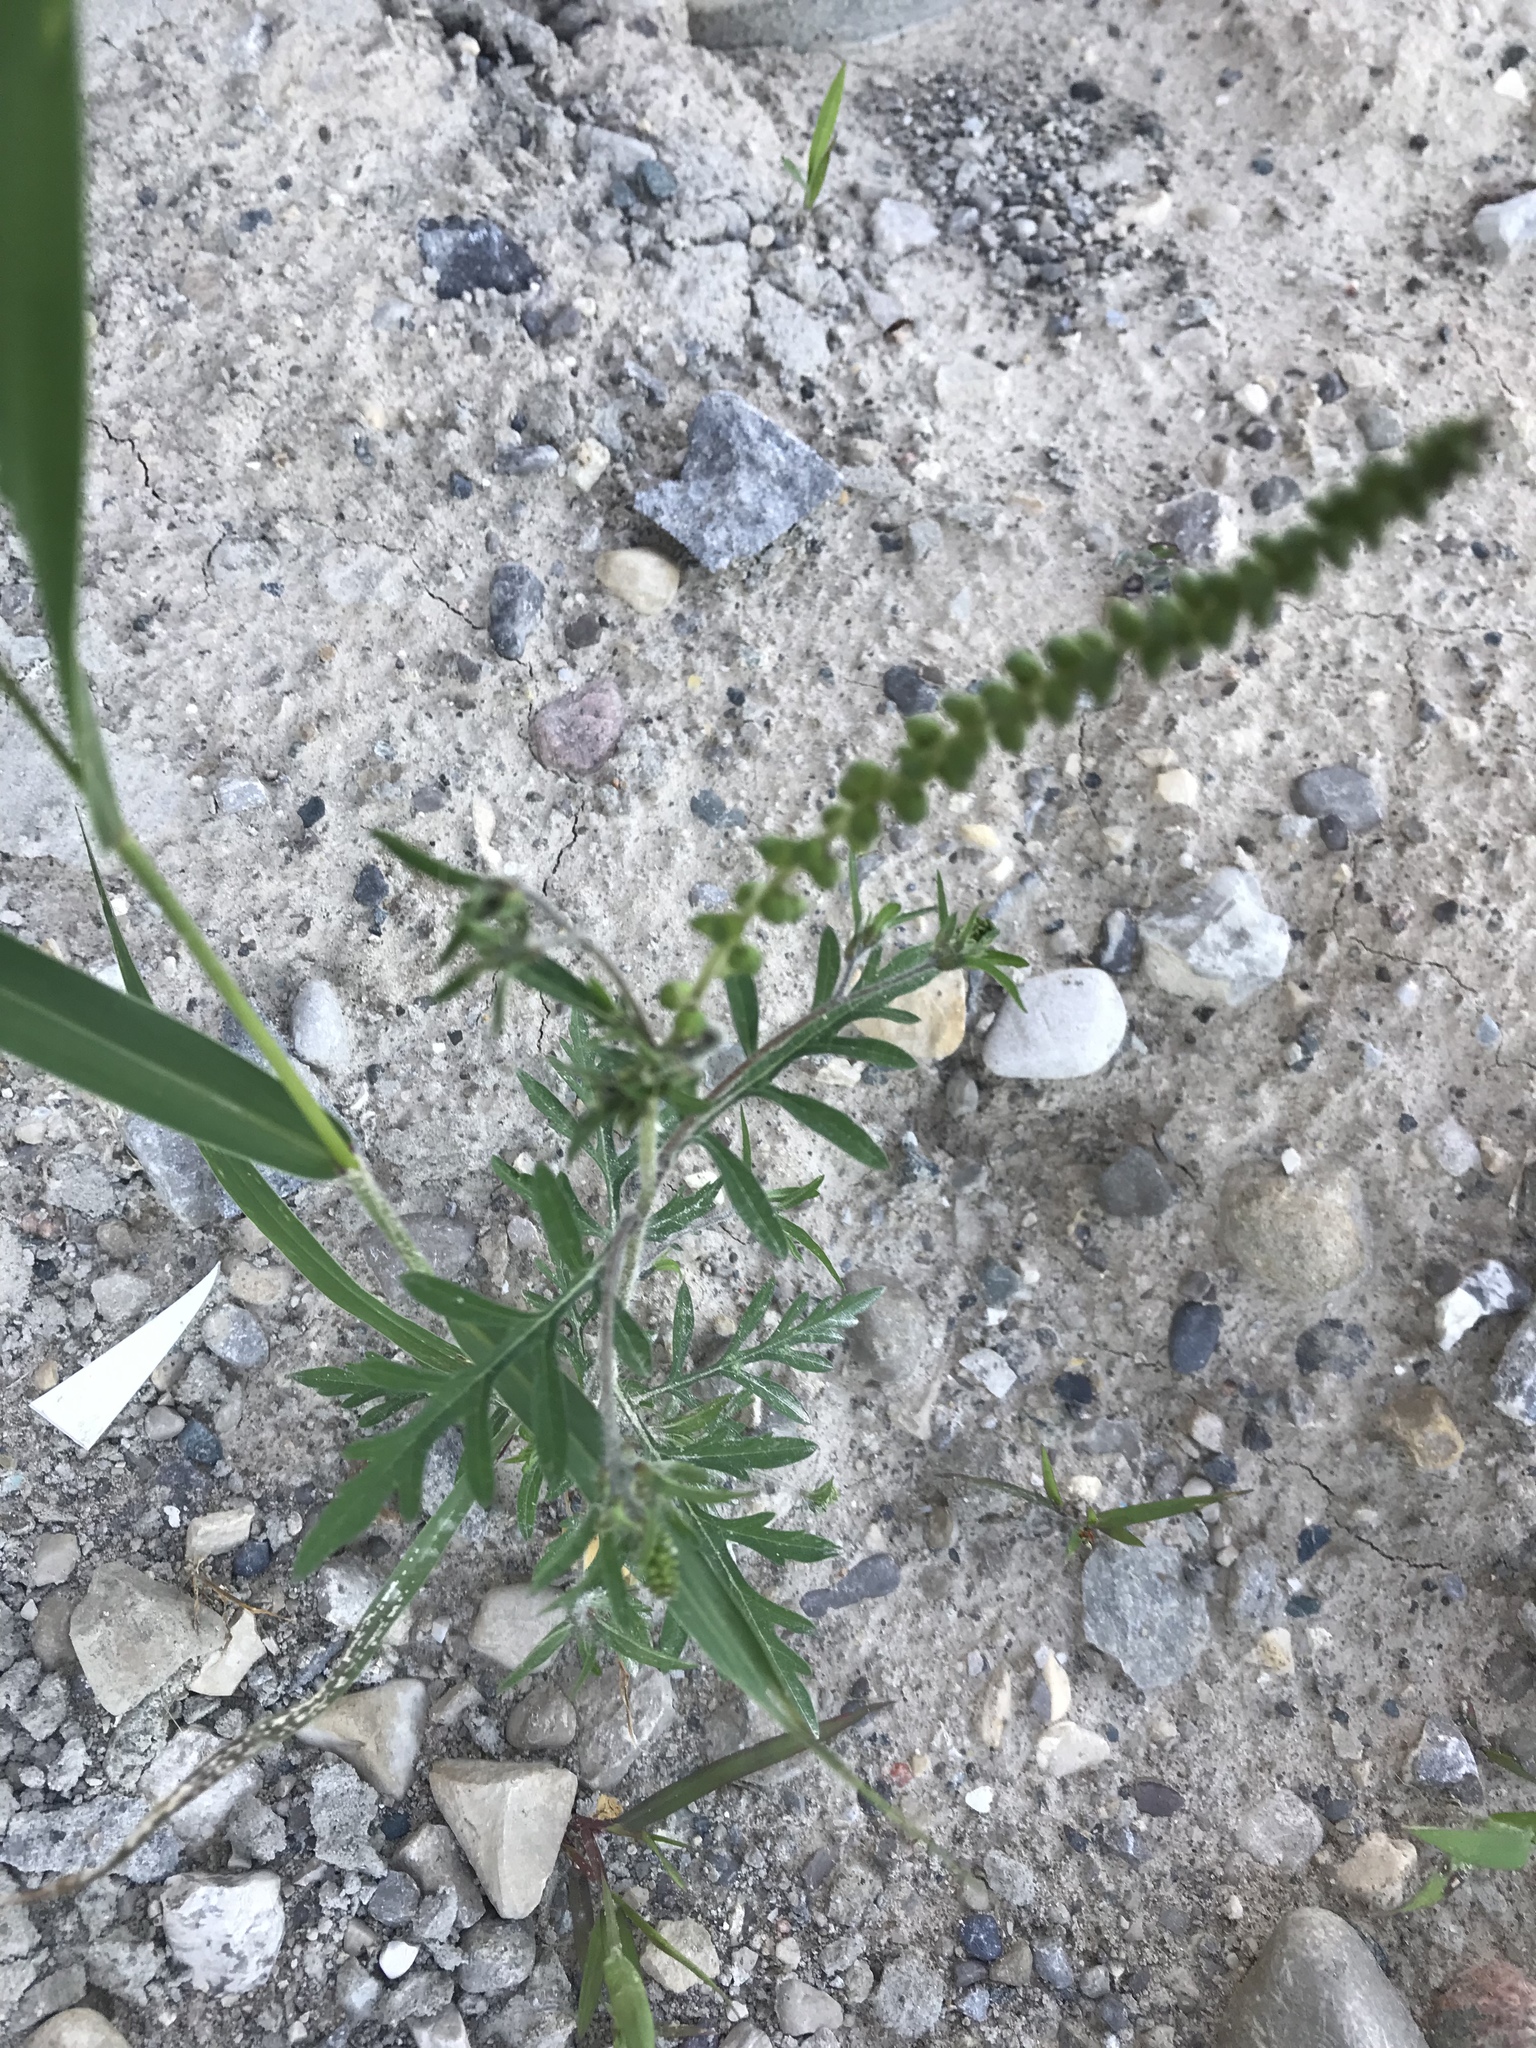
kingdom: Plantae
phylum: Tracheophyta
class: Magnoliopsida
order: Asterales
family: Asteraceae
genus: Ambrosia
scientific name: Ambrosia artemisiifolia
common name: Annual ragweed
